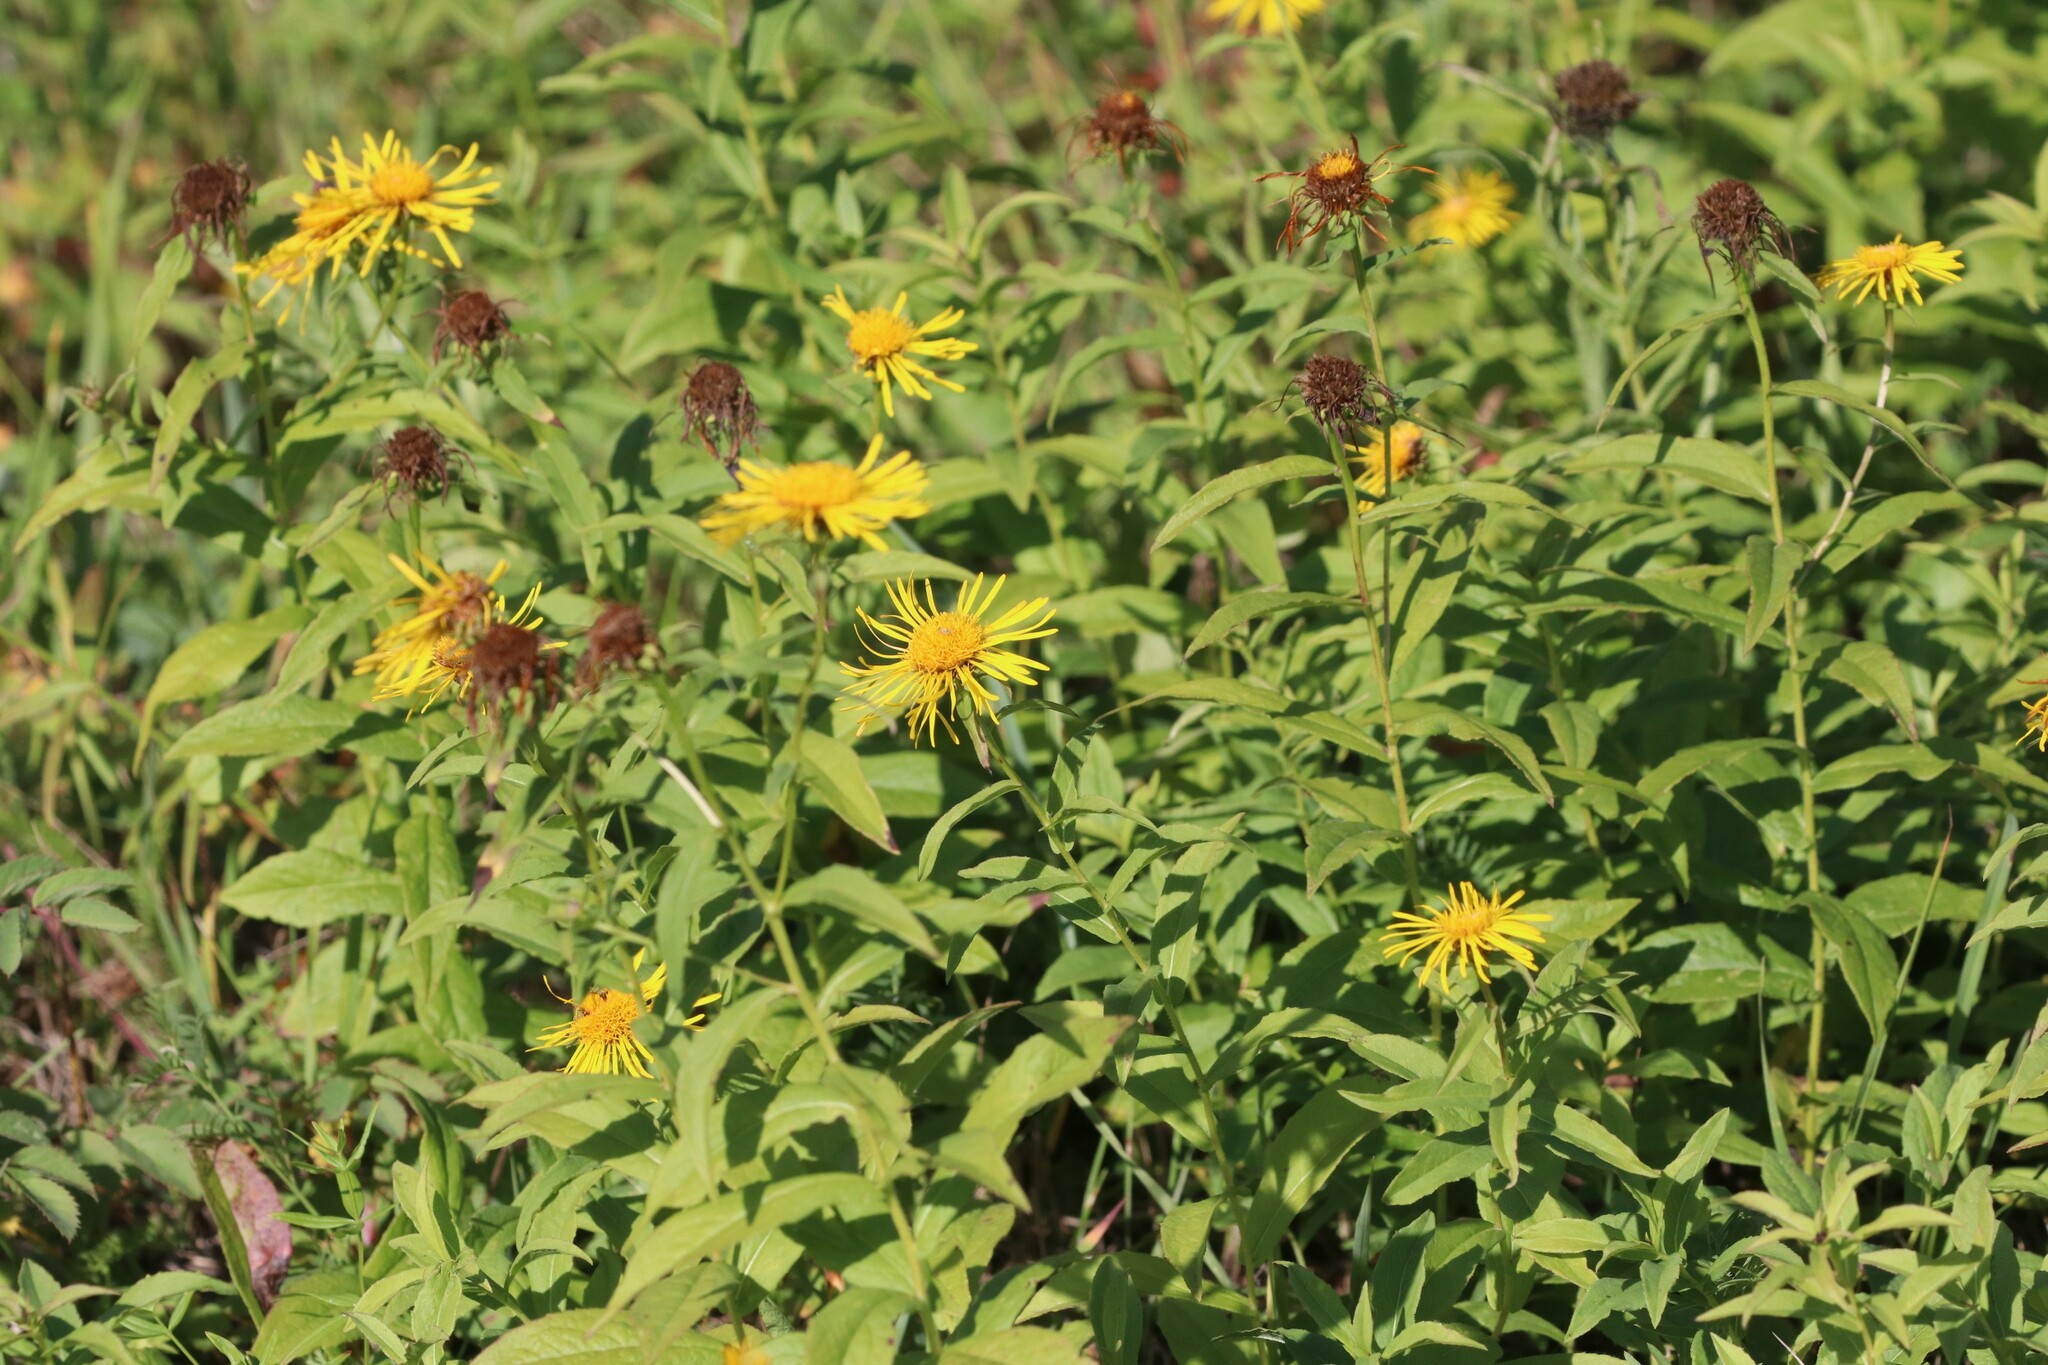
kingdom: Plantae
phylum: Tracheophyta
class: Magnoliopsida
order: Asterales
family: Asteraceae
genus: Pentanema
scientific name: Pentanema salicinum
